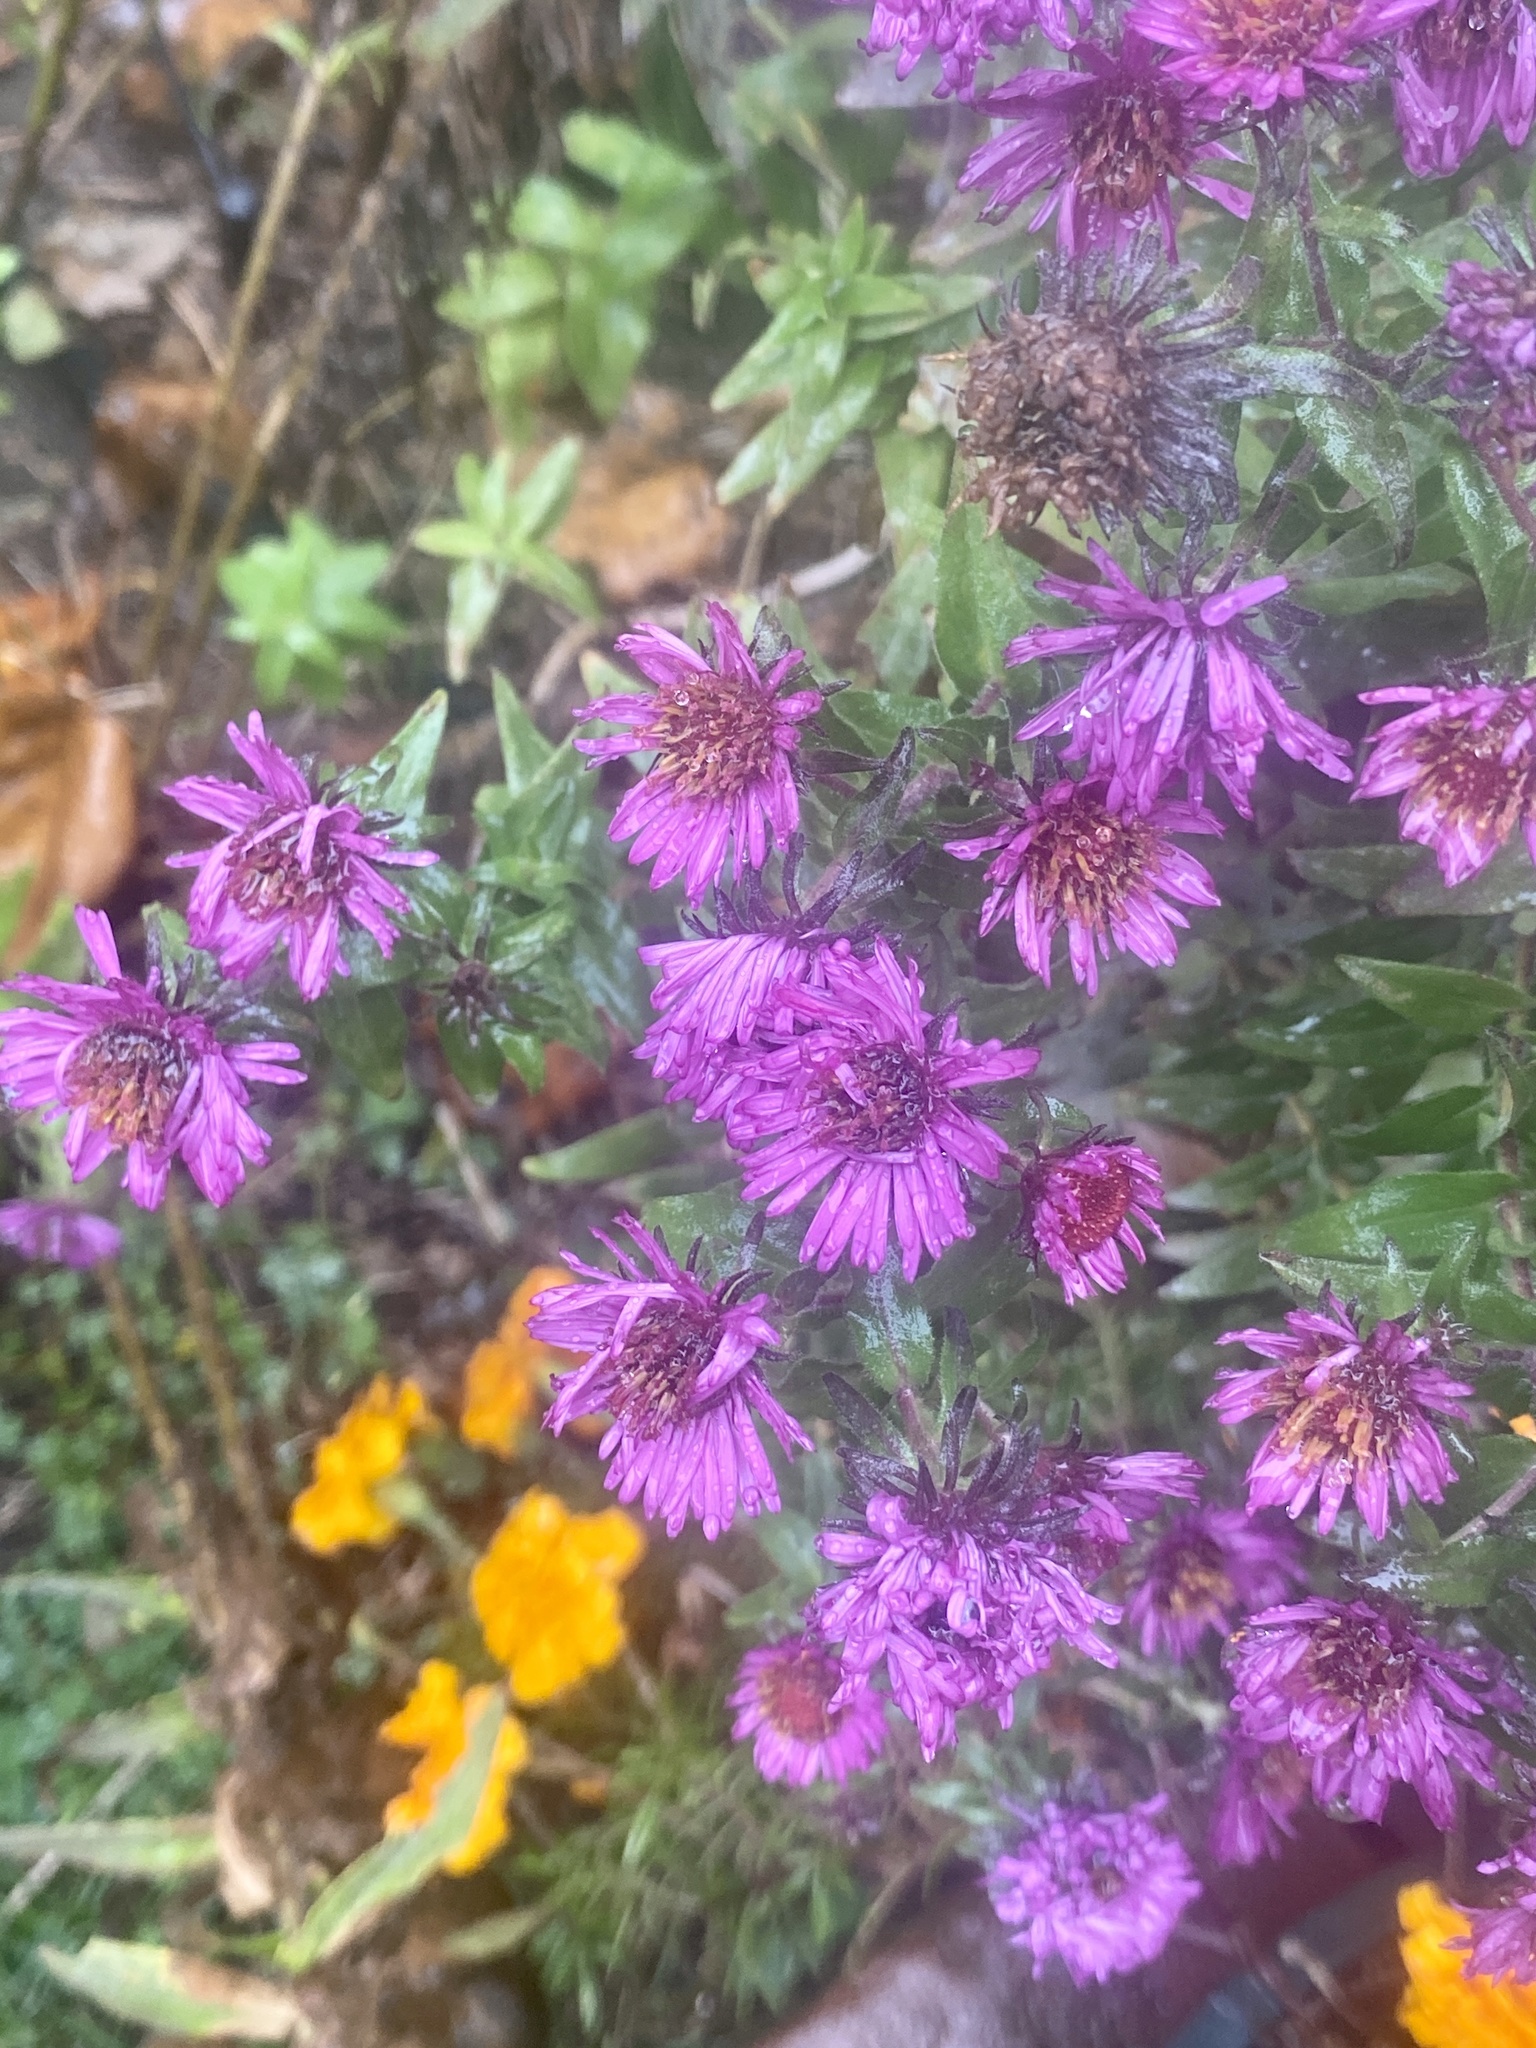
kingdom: Plantae
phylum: Tracheophyta
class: Magnoliopsida
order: Asterales
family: Asteraceae
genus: Symphyotrichum
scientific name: Symphyotrichum novae-angliae
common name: Michaelmas daisy
